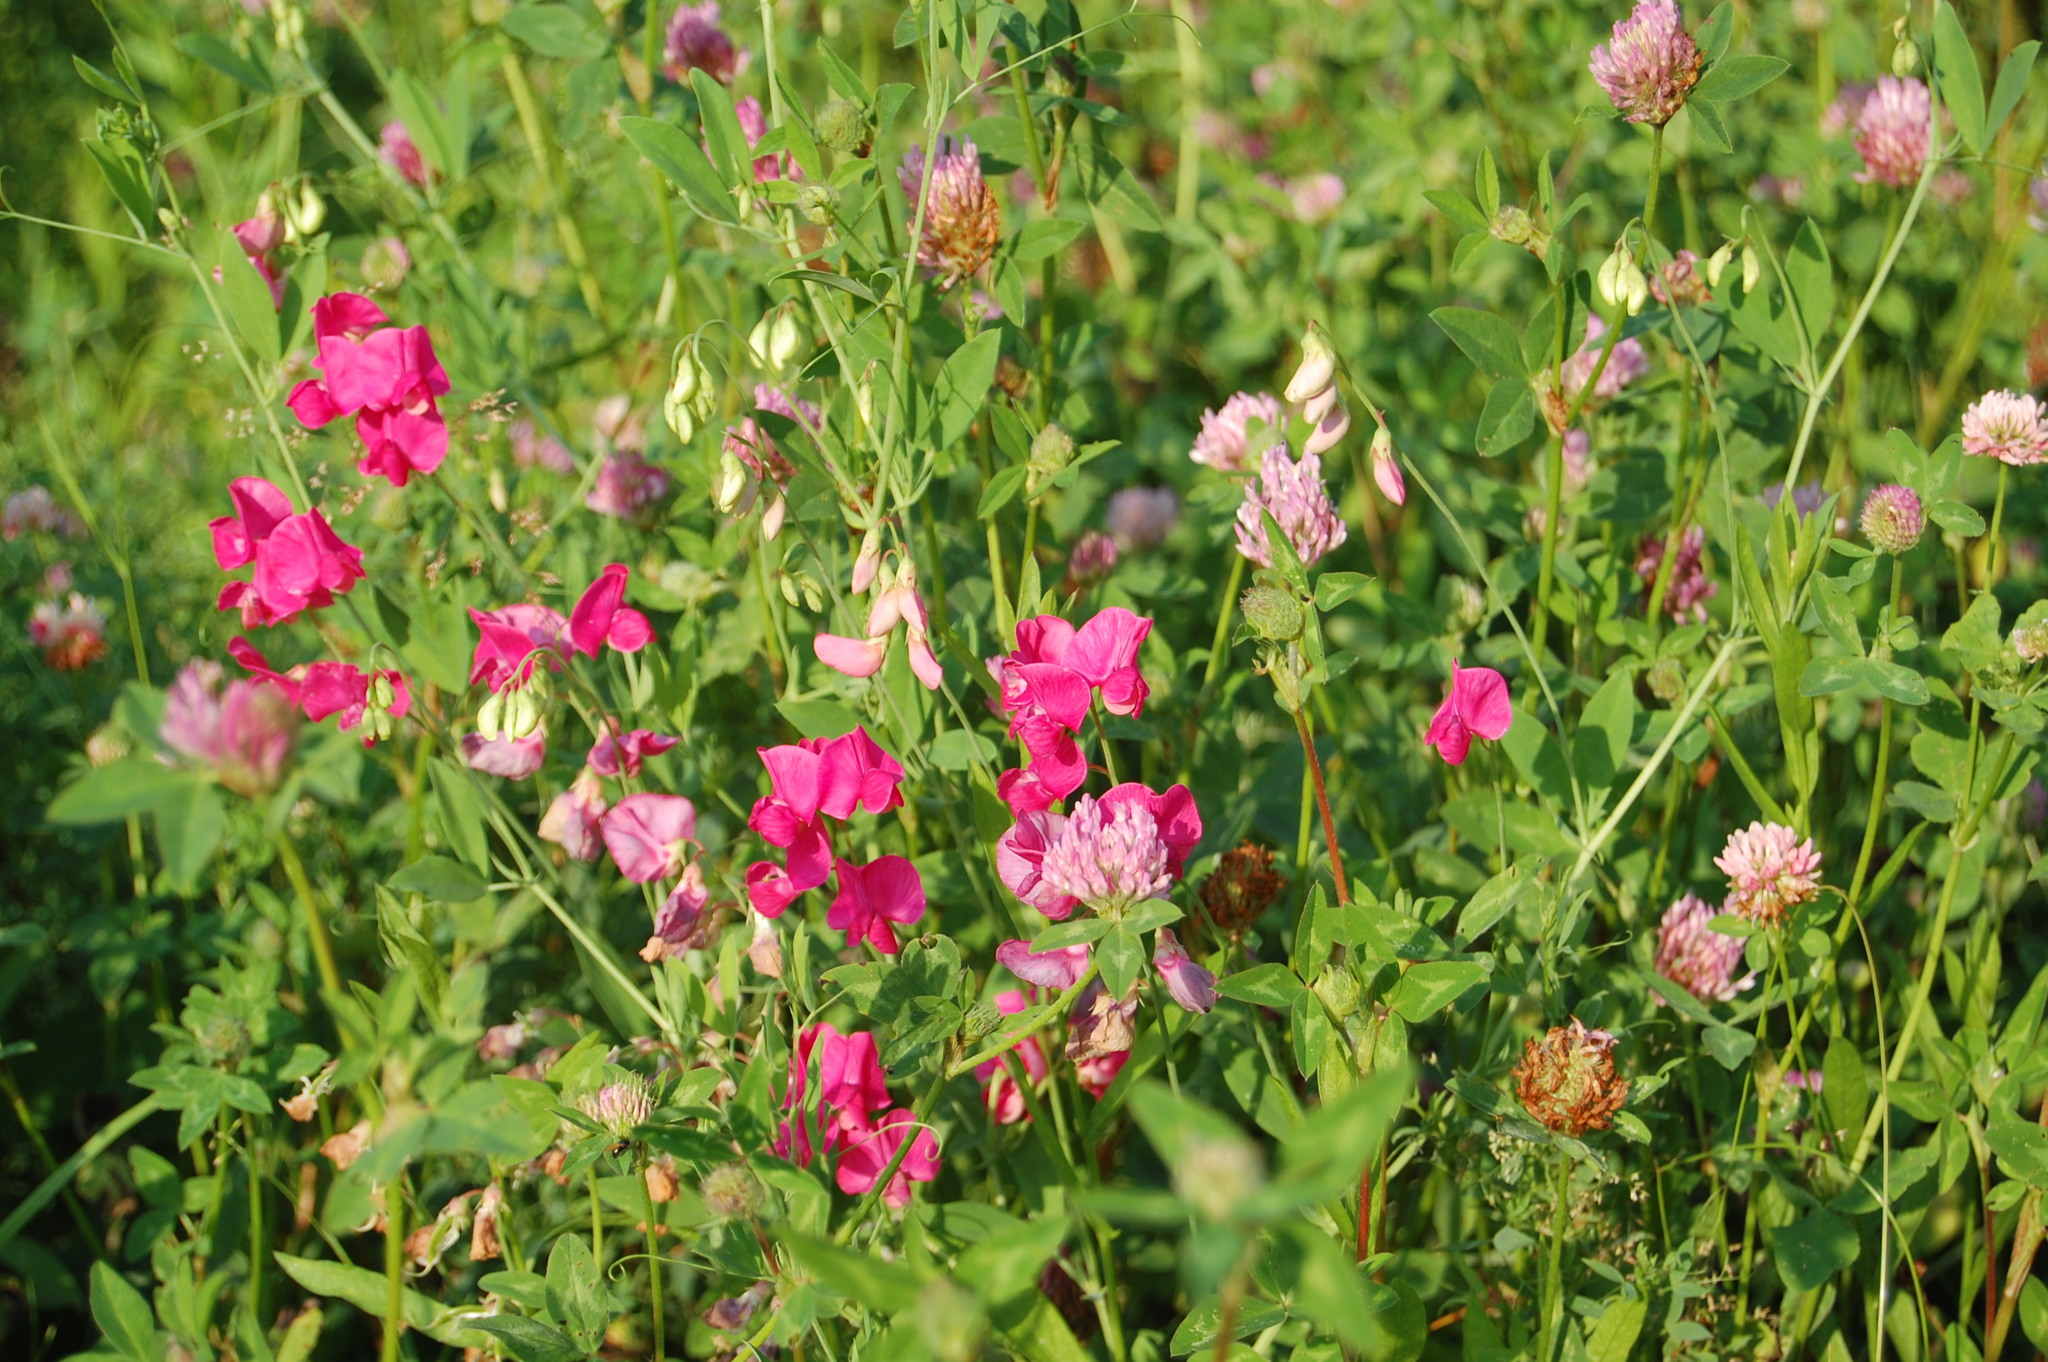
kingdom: Plantae
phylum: Tracheophyta
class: Magnoliopsida
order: Fabales
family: Fabaceae
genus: Lathyrus
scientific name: Lathyrus tuberosus
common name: Tuberous pea
